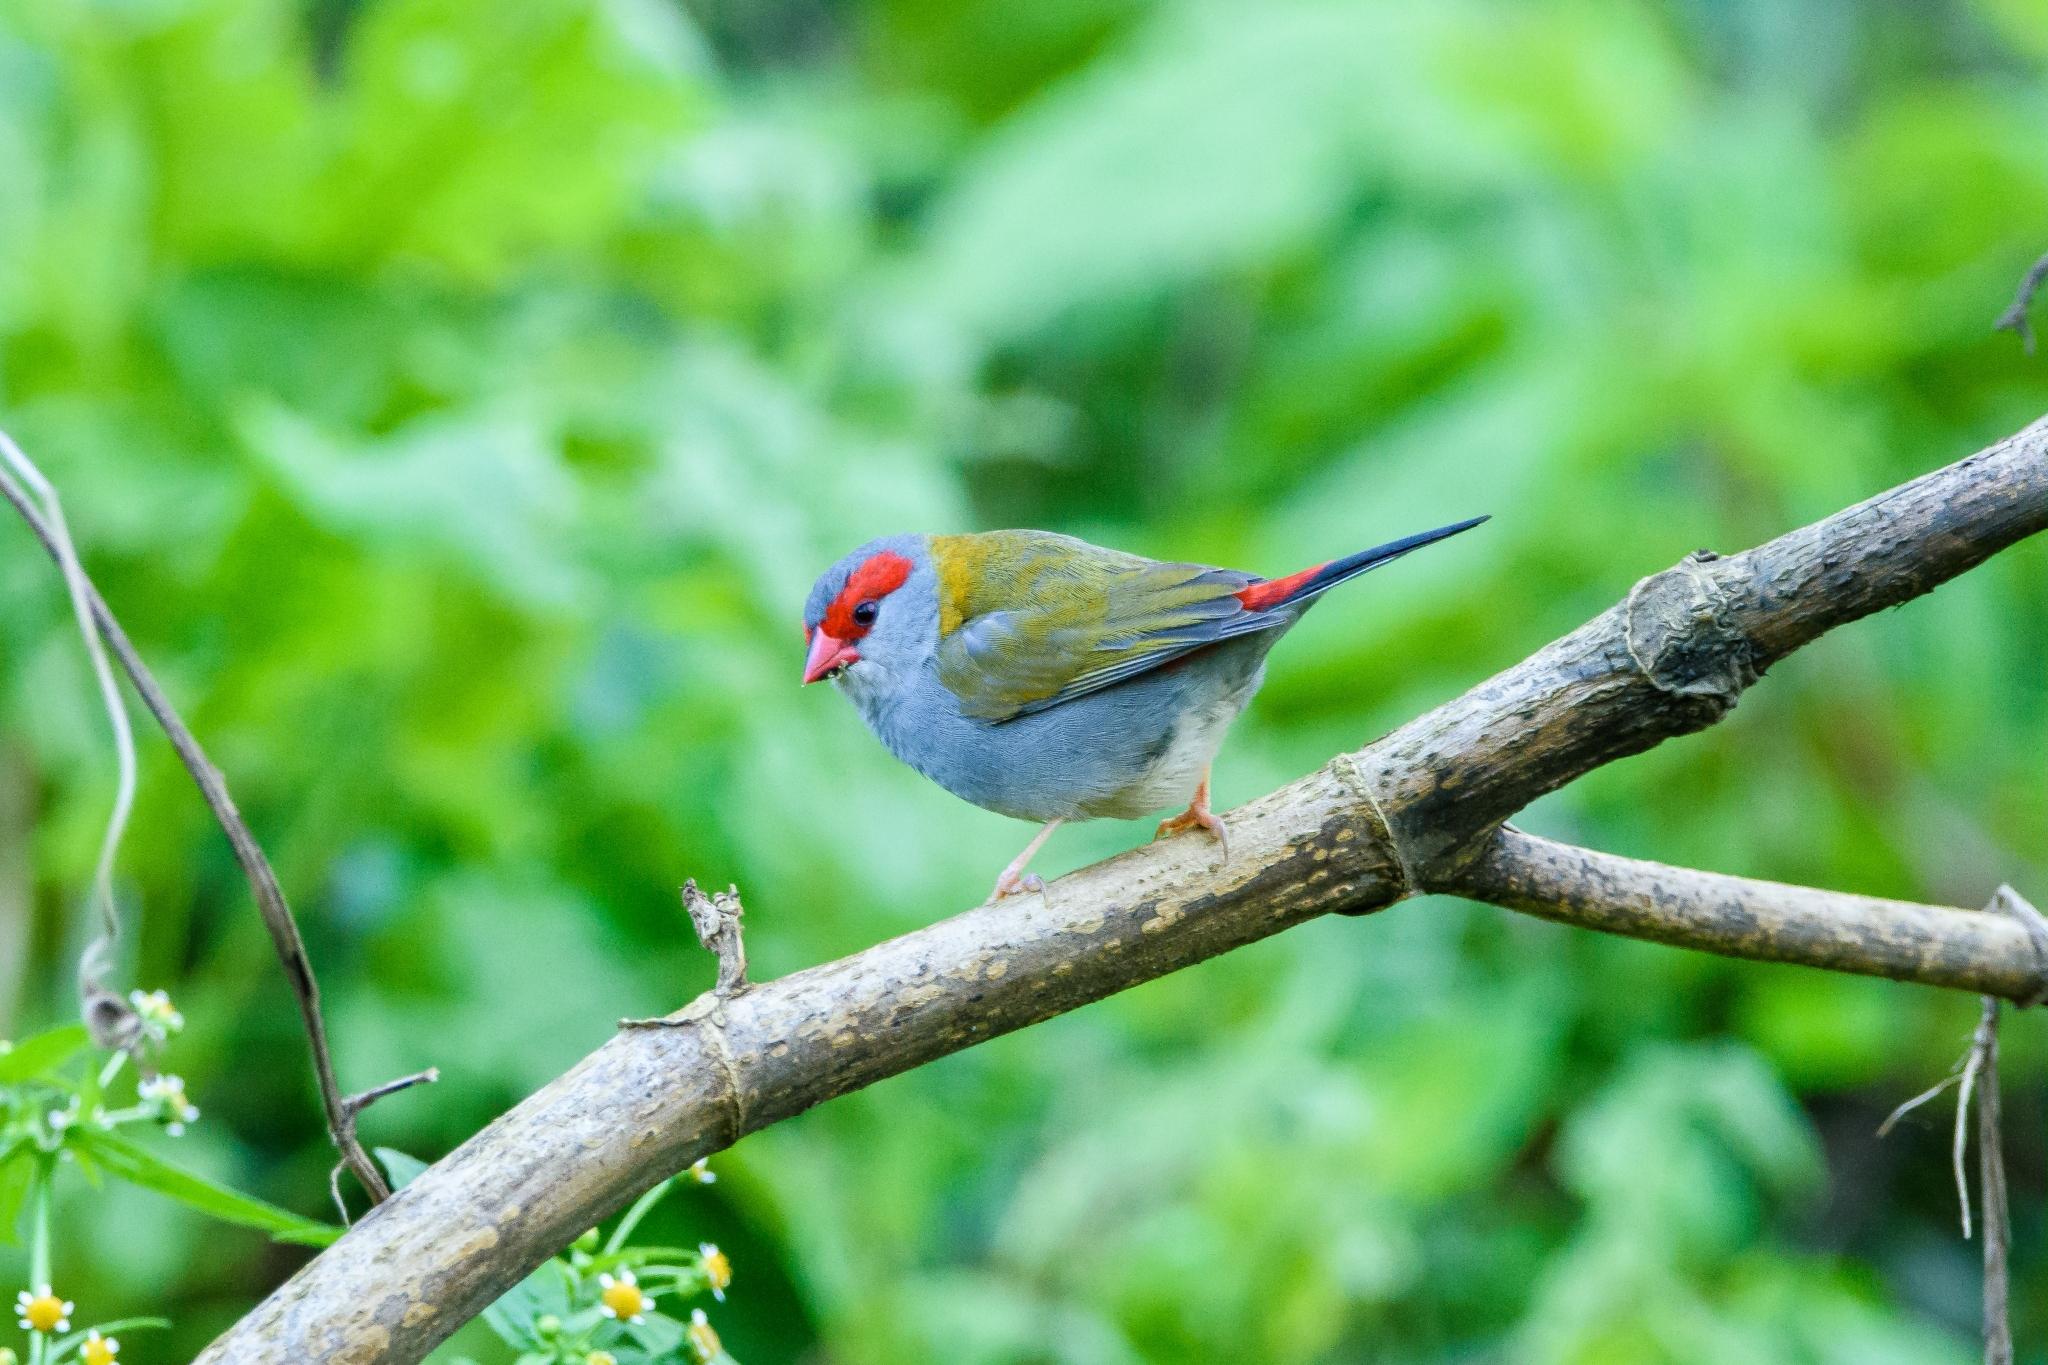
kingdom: Animalia
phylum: Chordata
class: Aves
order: Passeriformes
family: Estrildidae
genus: Neochmia
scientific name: Neochmia temporalis
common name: Red-browed finch
